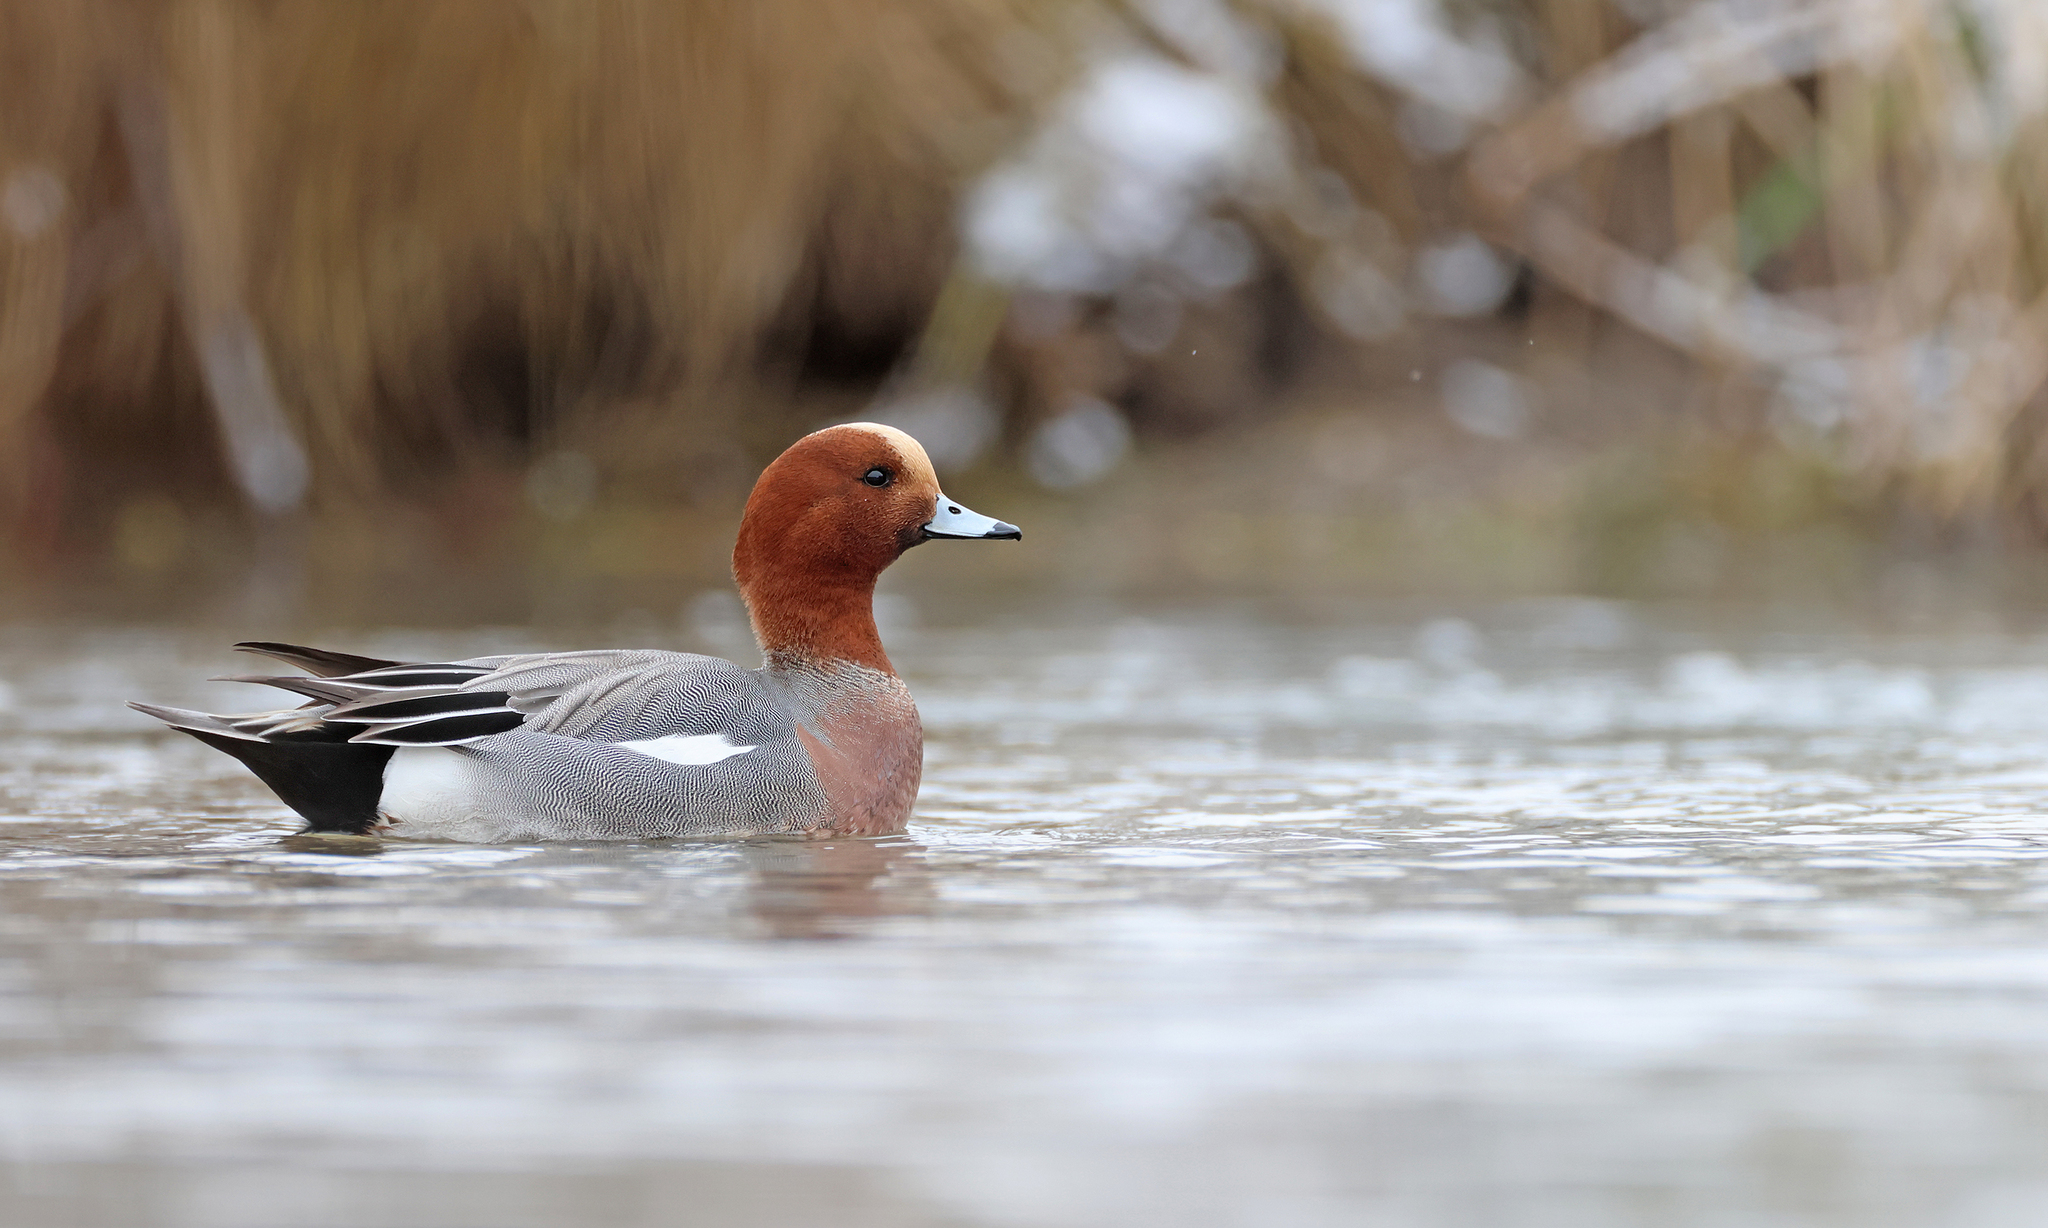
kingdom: Animalia
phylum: Chordata
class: Aves
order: Anseriformes
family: Anatidae
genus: Mareca
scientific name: Mareca penelope
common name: Eurasian wigeon
